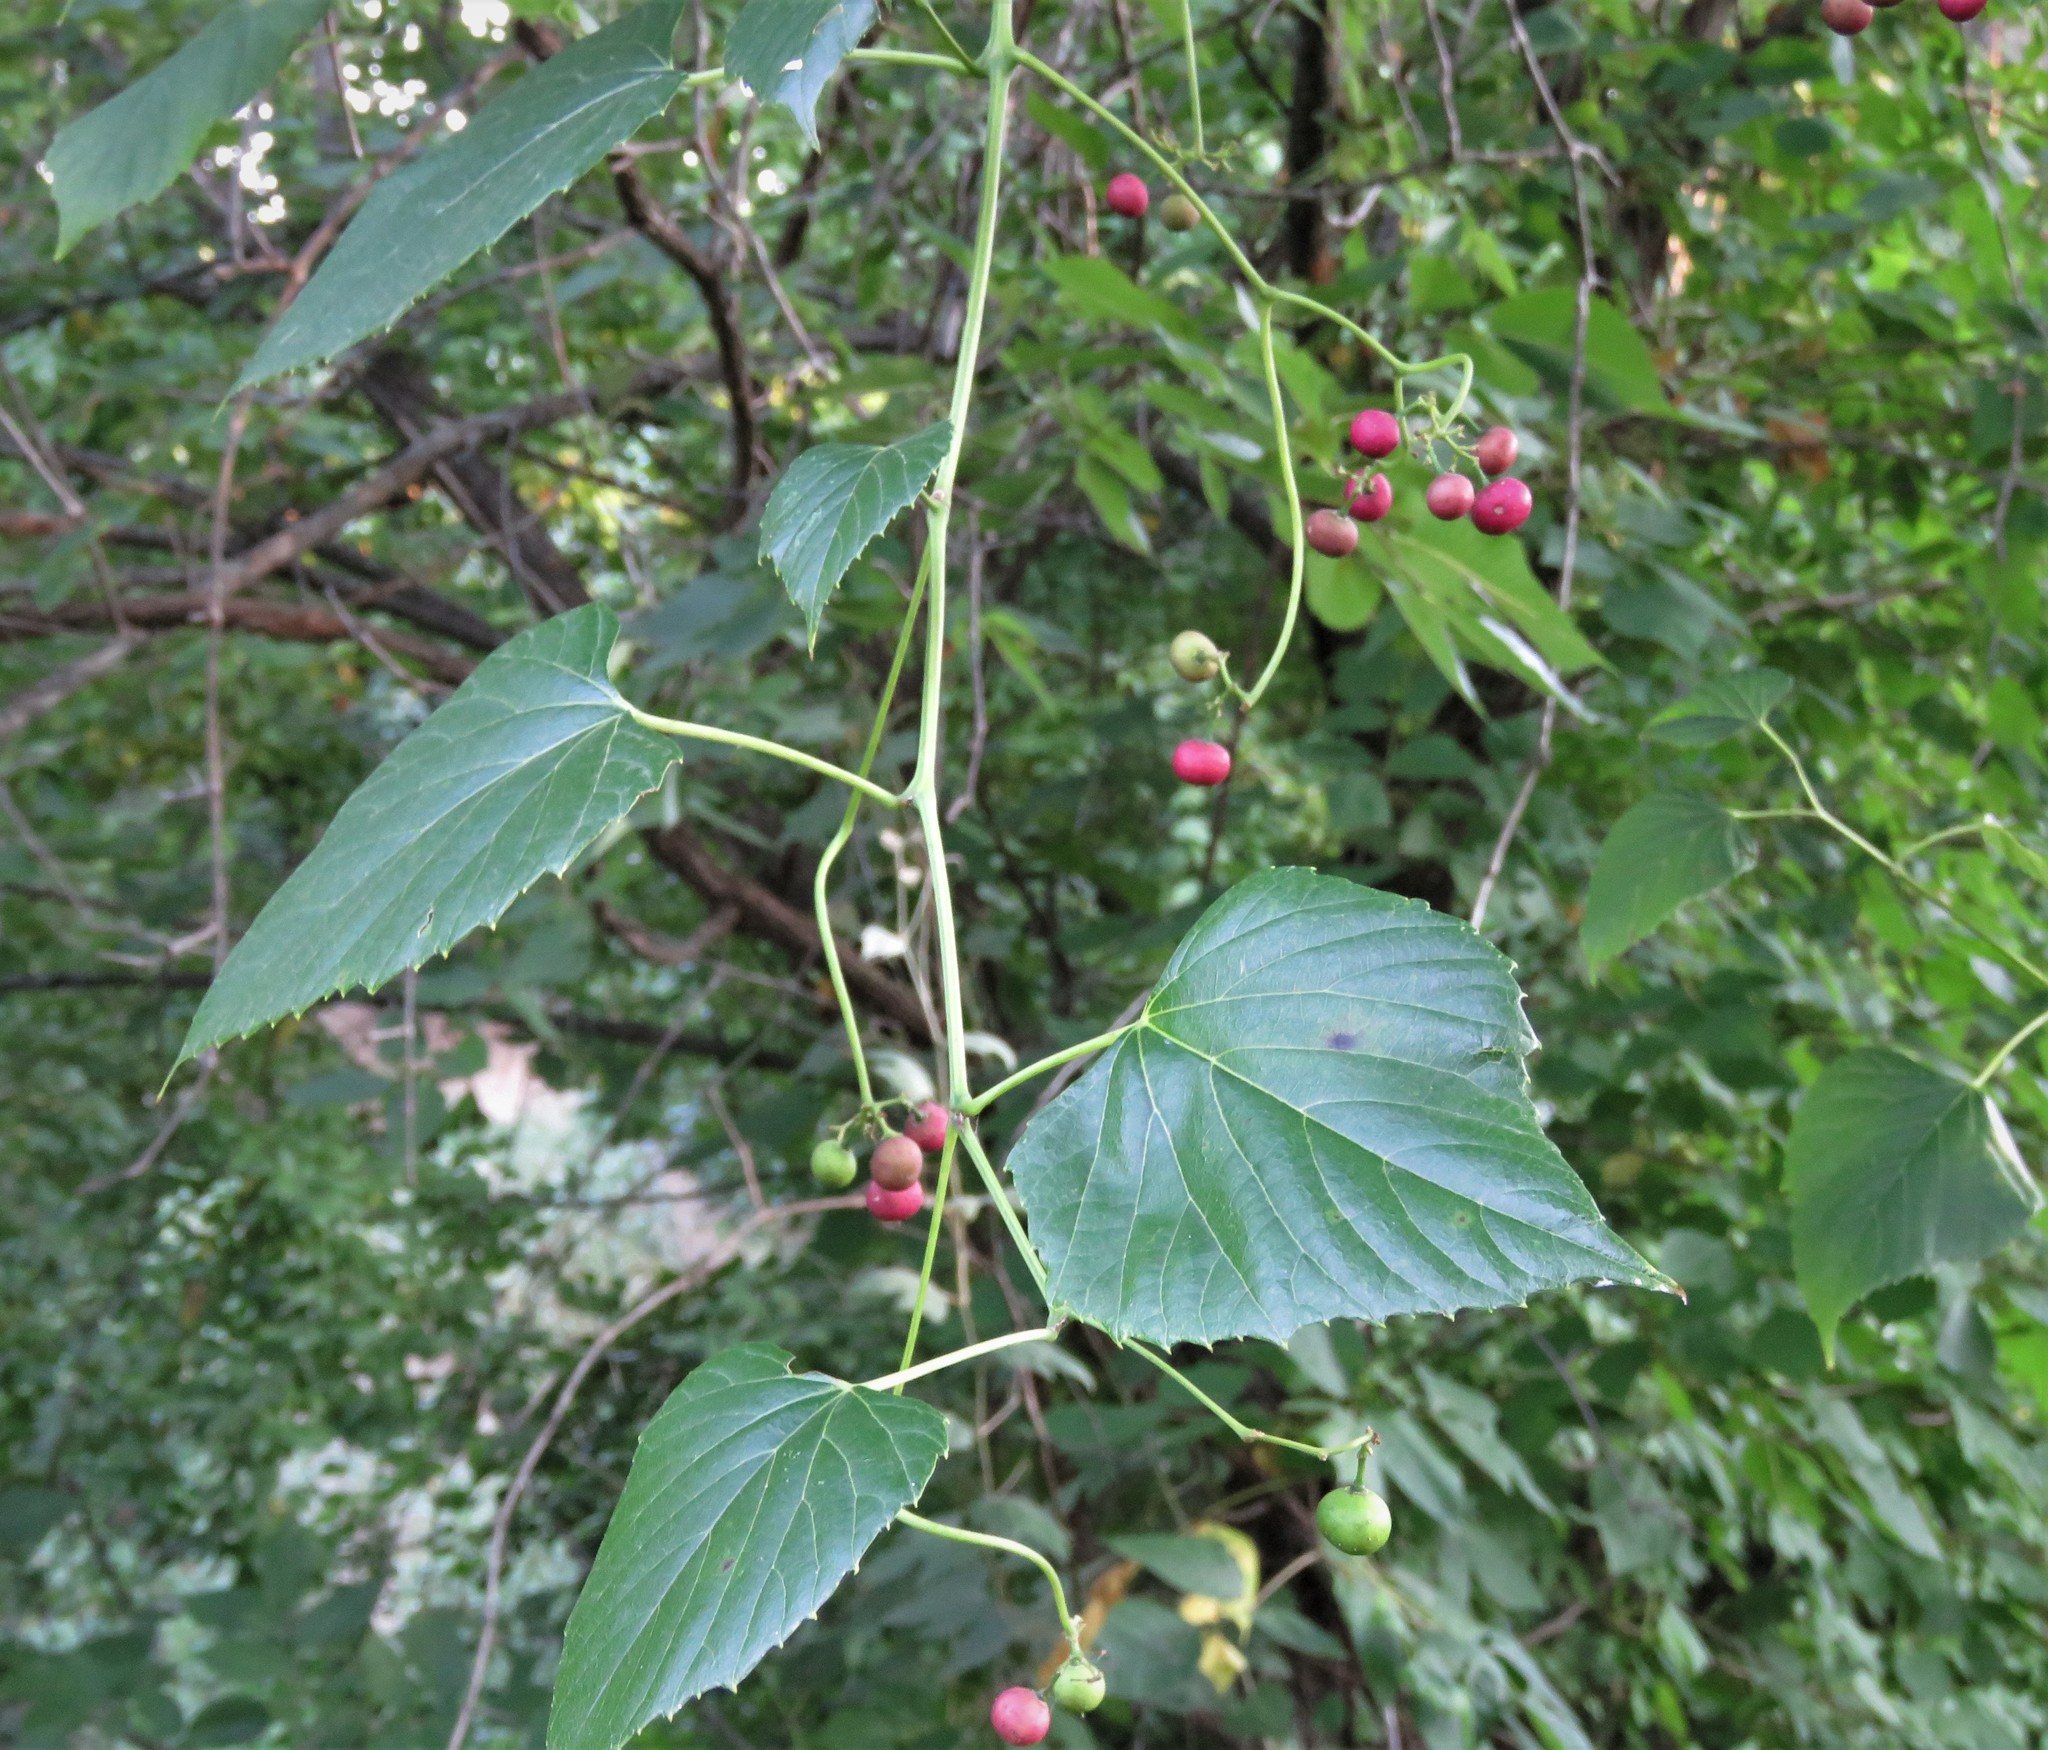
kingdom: Plantae
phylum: Tracheophyta
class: Magnoliopsida
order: Vitales
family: Vitaceae
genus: Ampelopsis
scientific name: Ampelopsis cordata
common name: Heart-leaf ampelopsis
